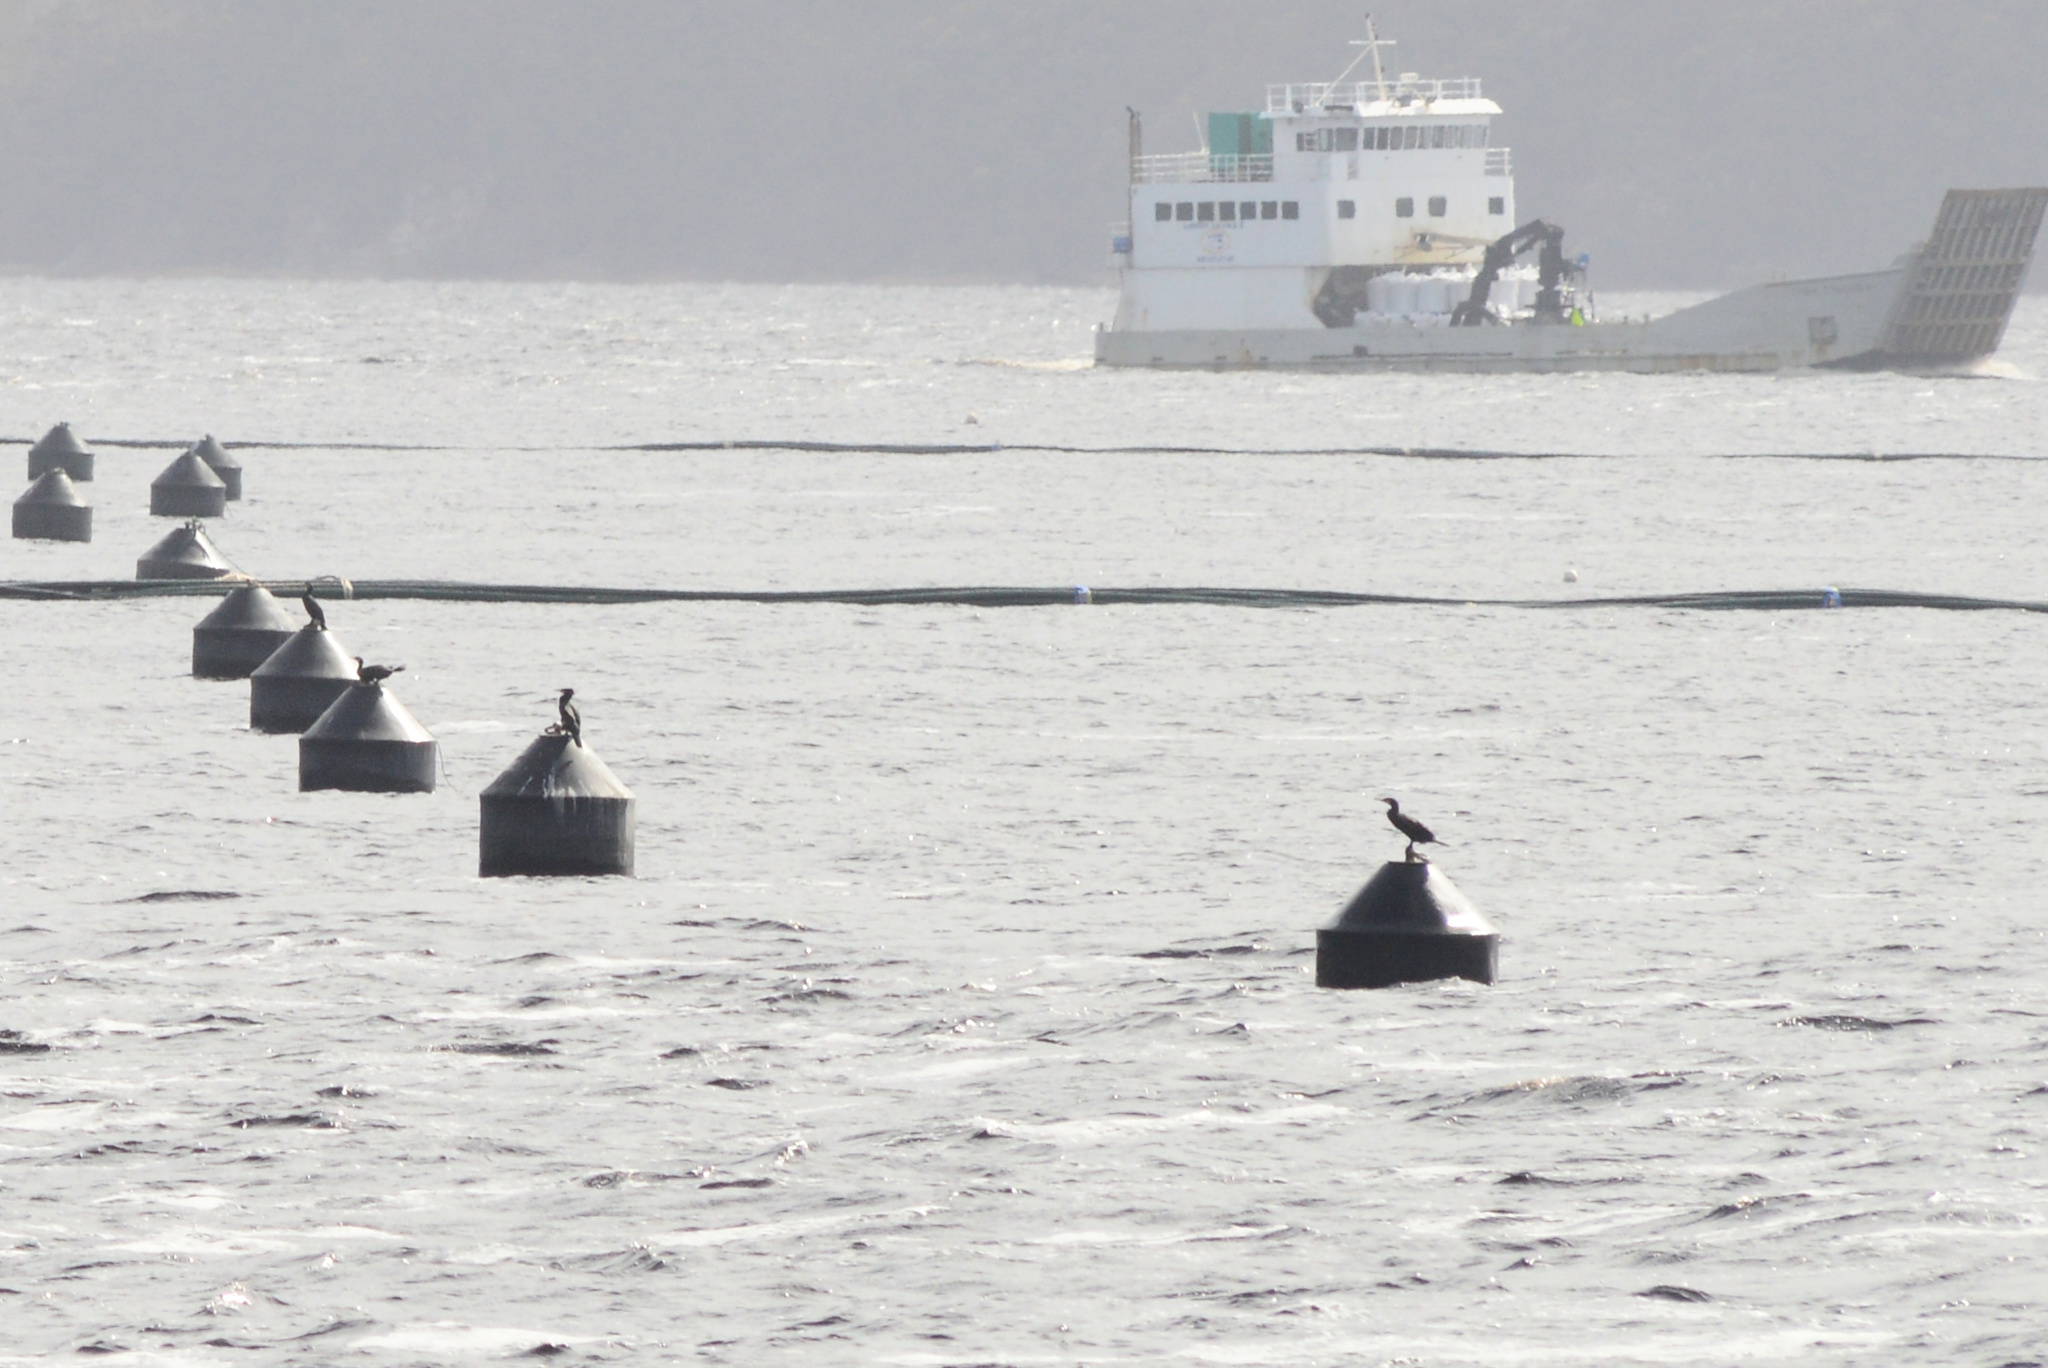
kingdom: Animalia
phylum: Chordata
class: Aves
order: Suliformes
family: Phalacrocoracidae
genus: Phalacrocorax
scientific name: Phalacrocorax carbo
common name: Great cormorant
